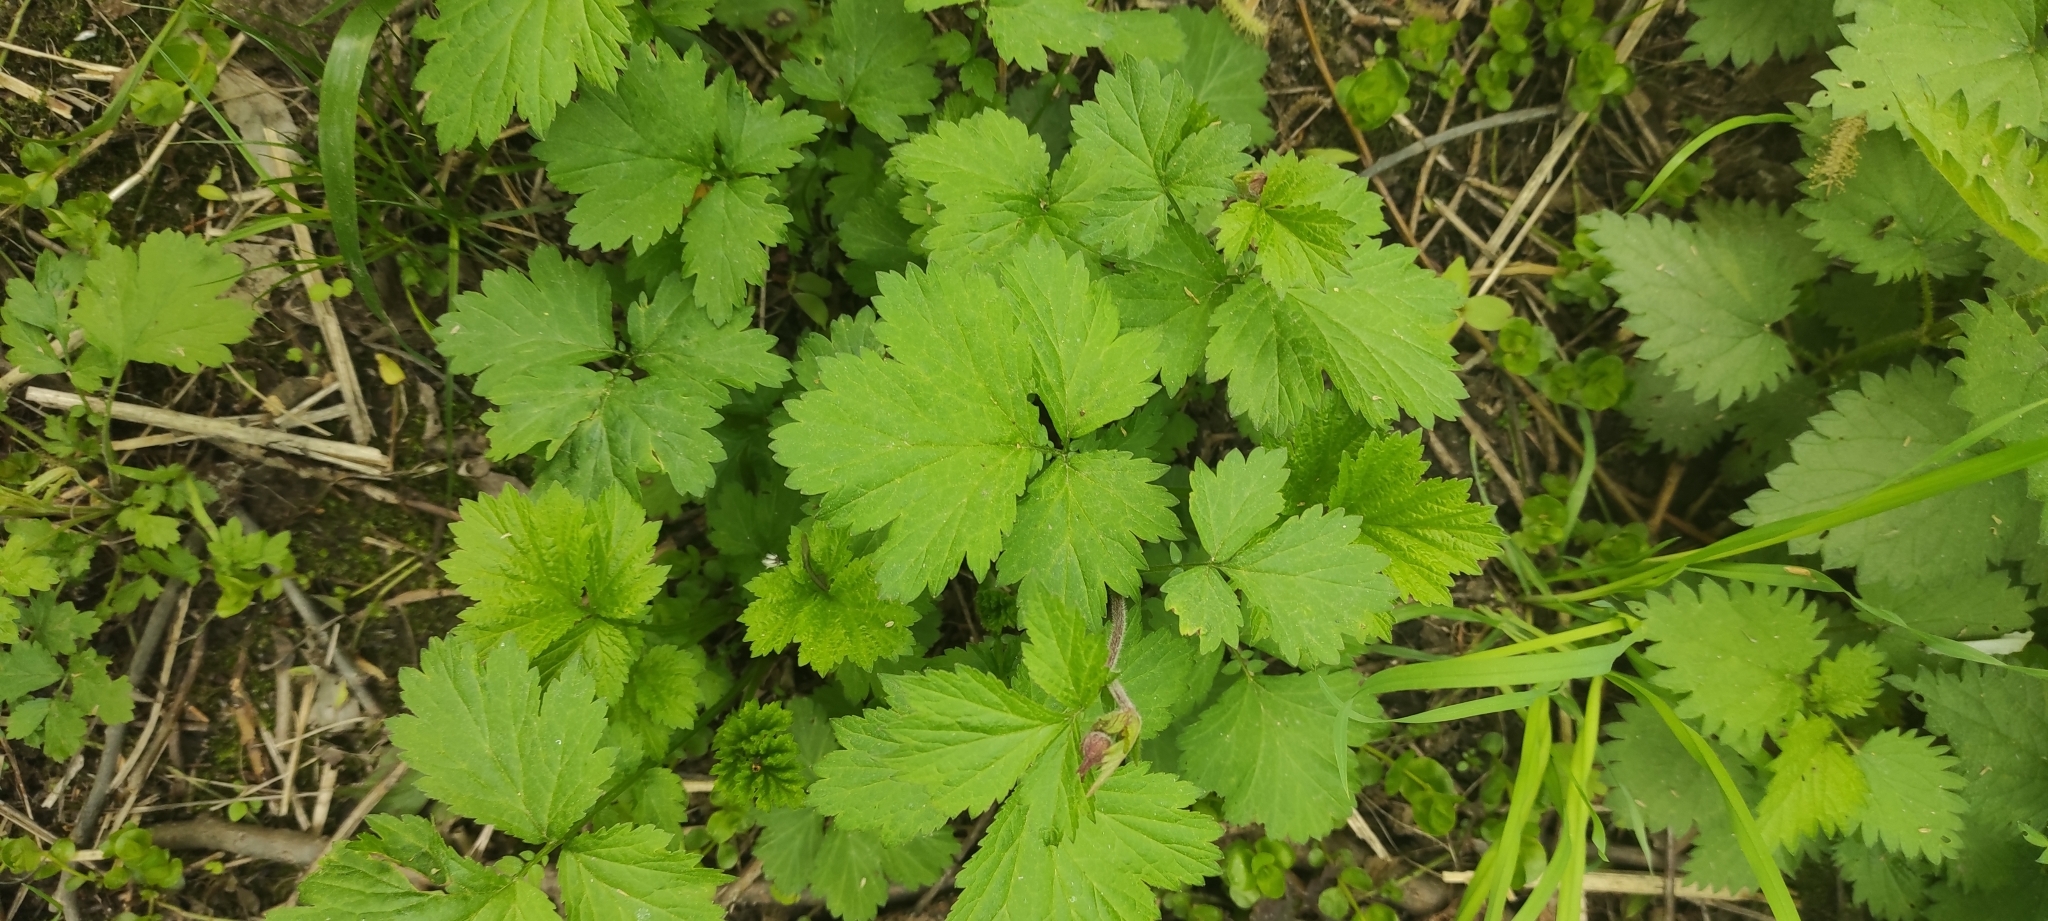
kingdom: Plantae
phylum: Tracheophyta
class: Magnoliopsida
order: Rosales
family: Rosaceae
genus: Geum
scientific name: Geum rivale
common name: Water avens
